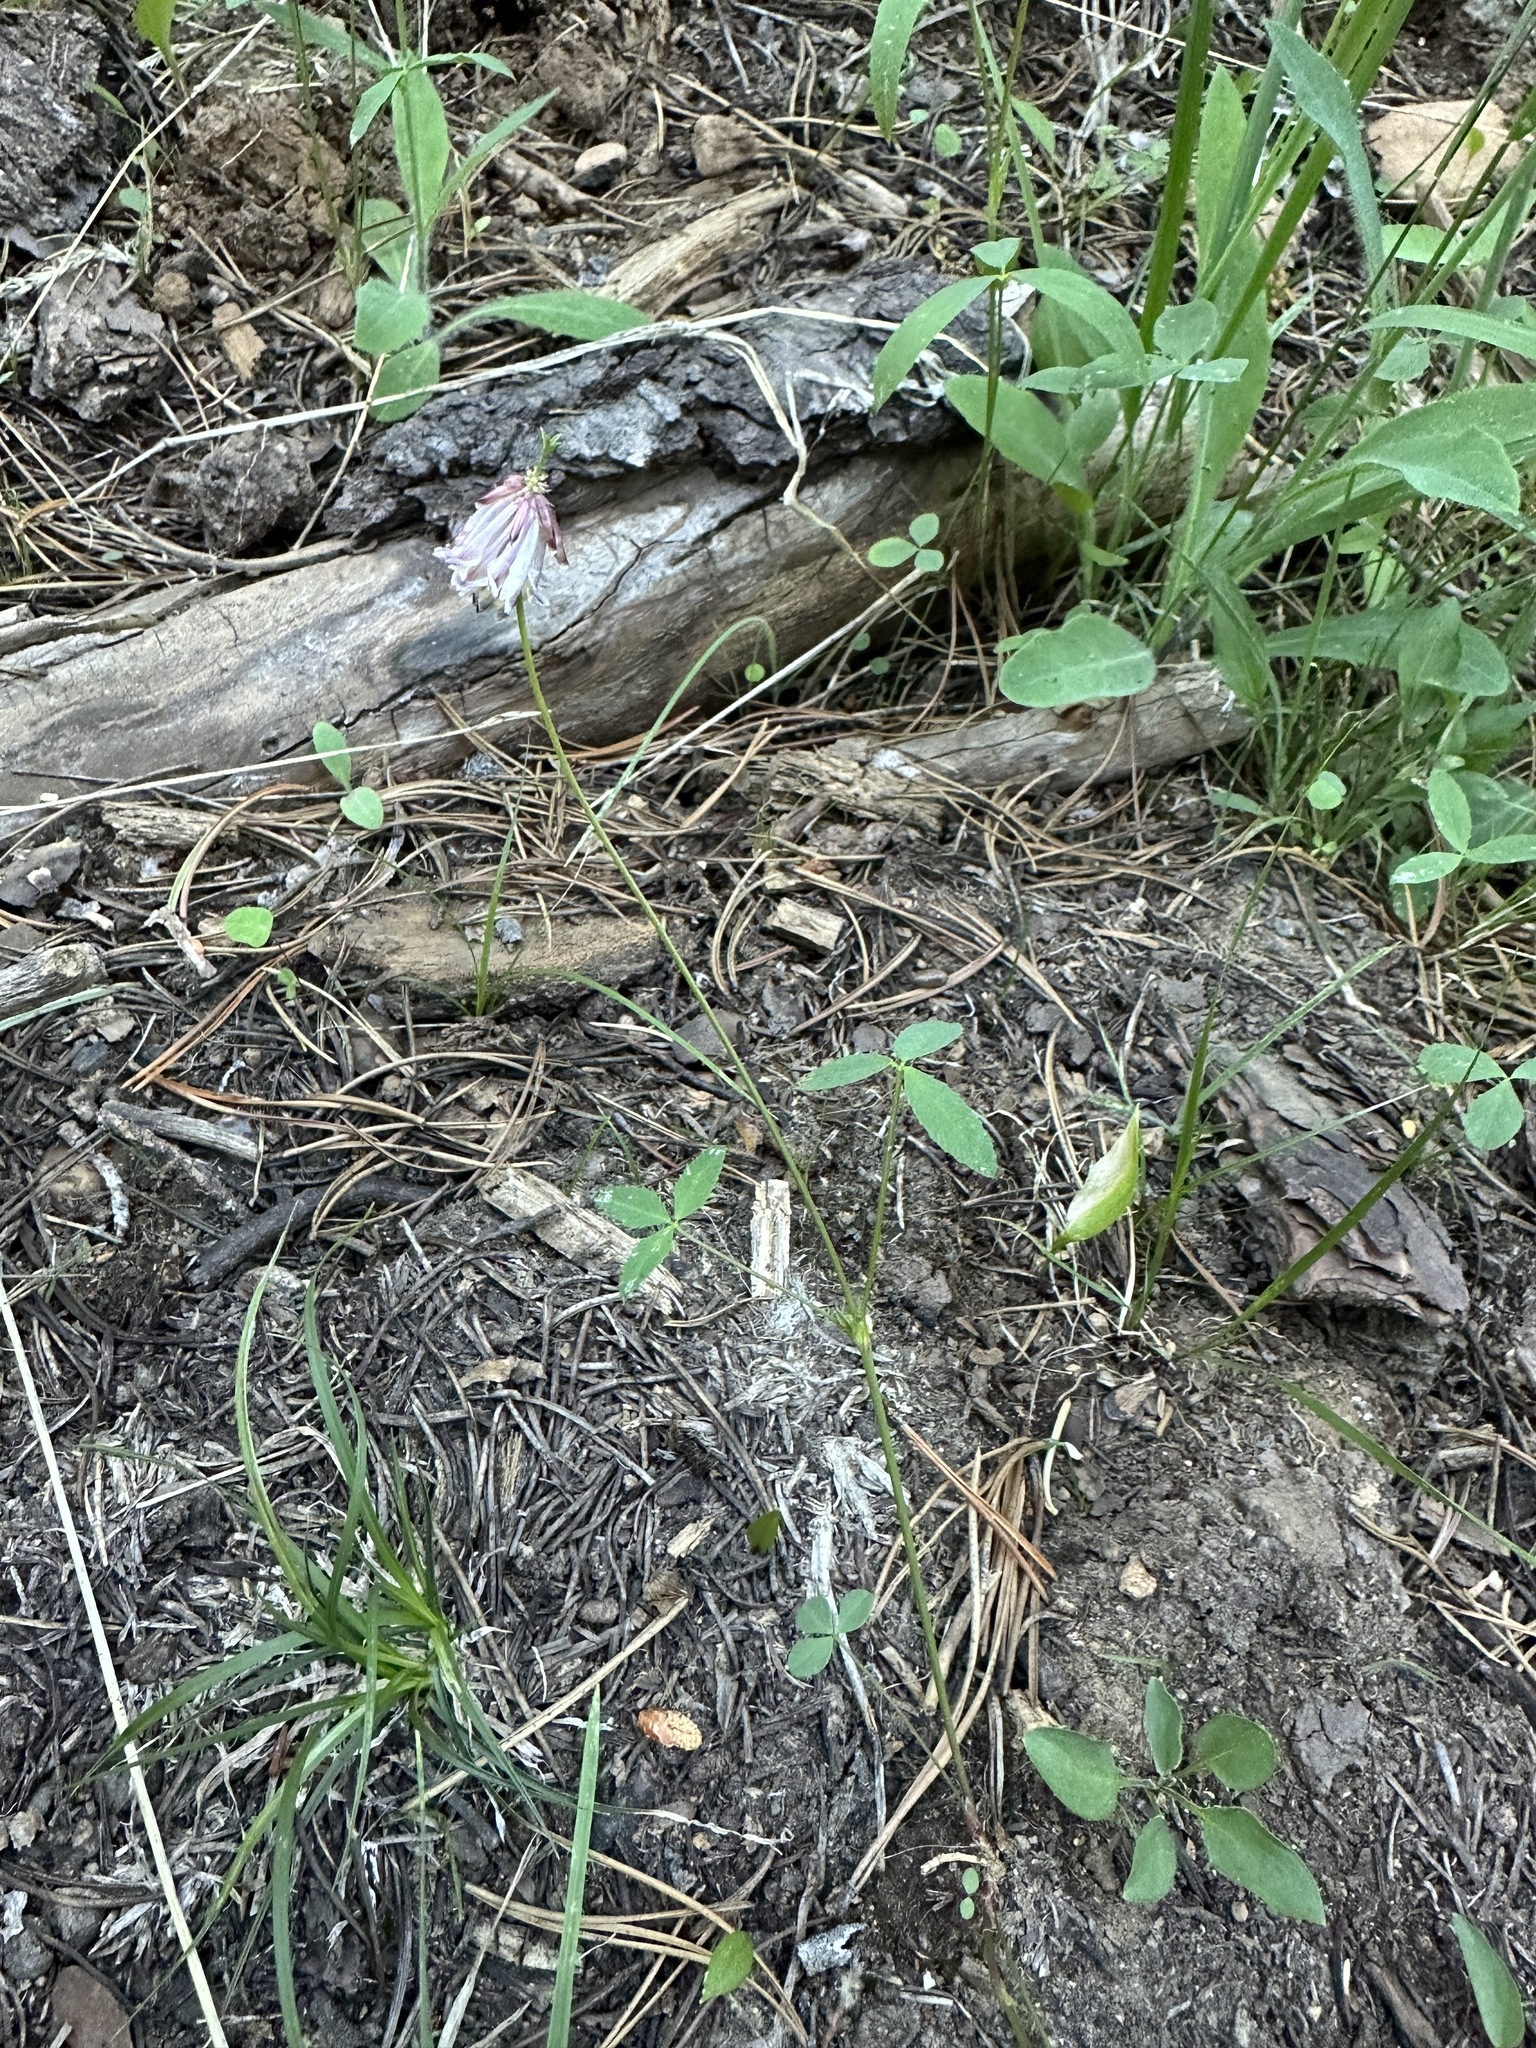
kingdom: Plantae
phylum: Tracheophyta
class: Magnoliopsida
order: Fabales
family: Fabaceae
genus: Trifolium
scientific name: Trifolium productum
